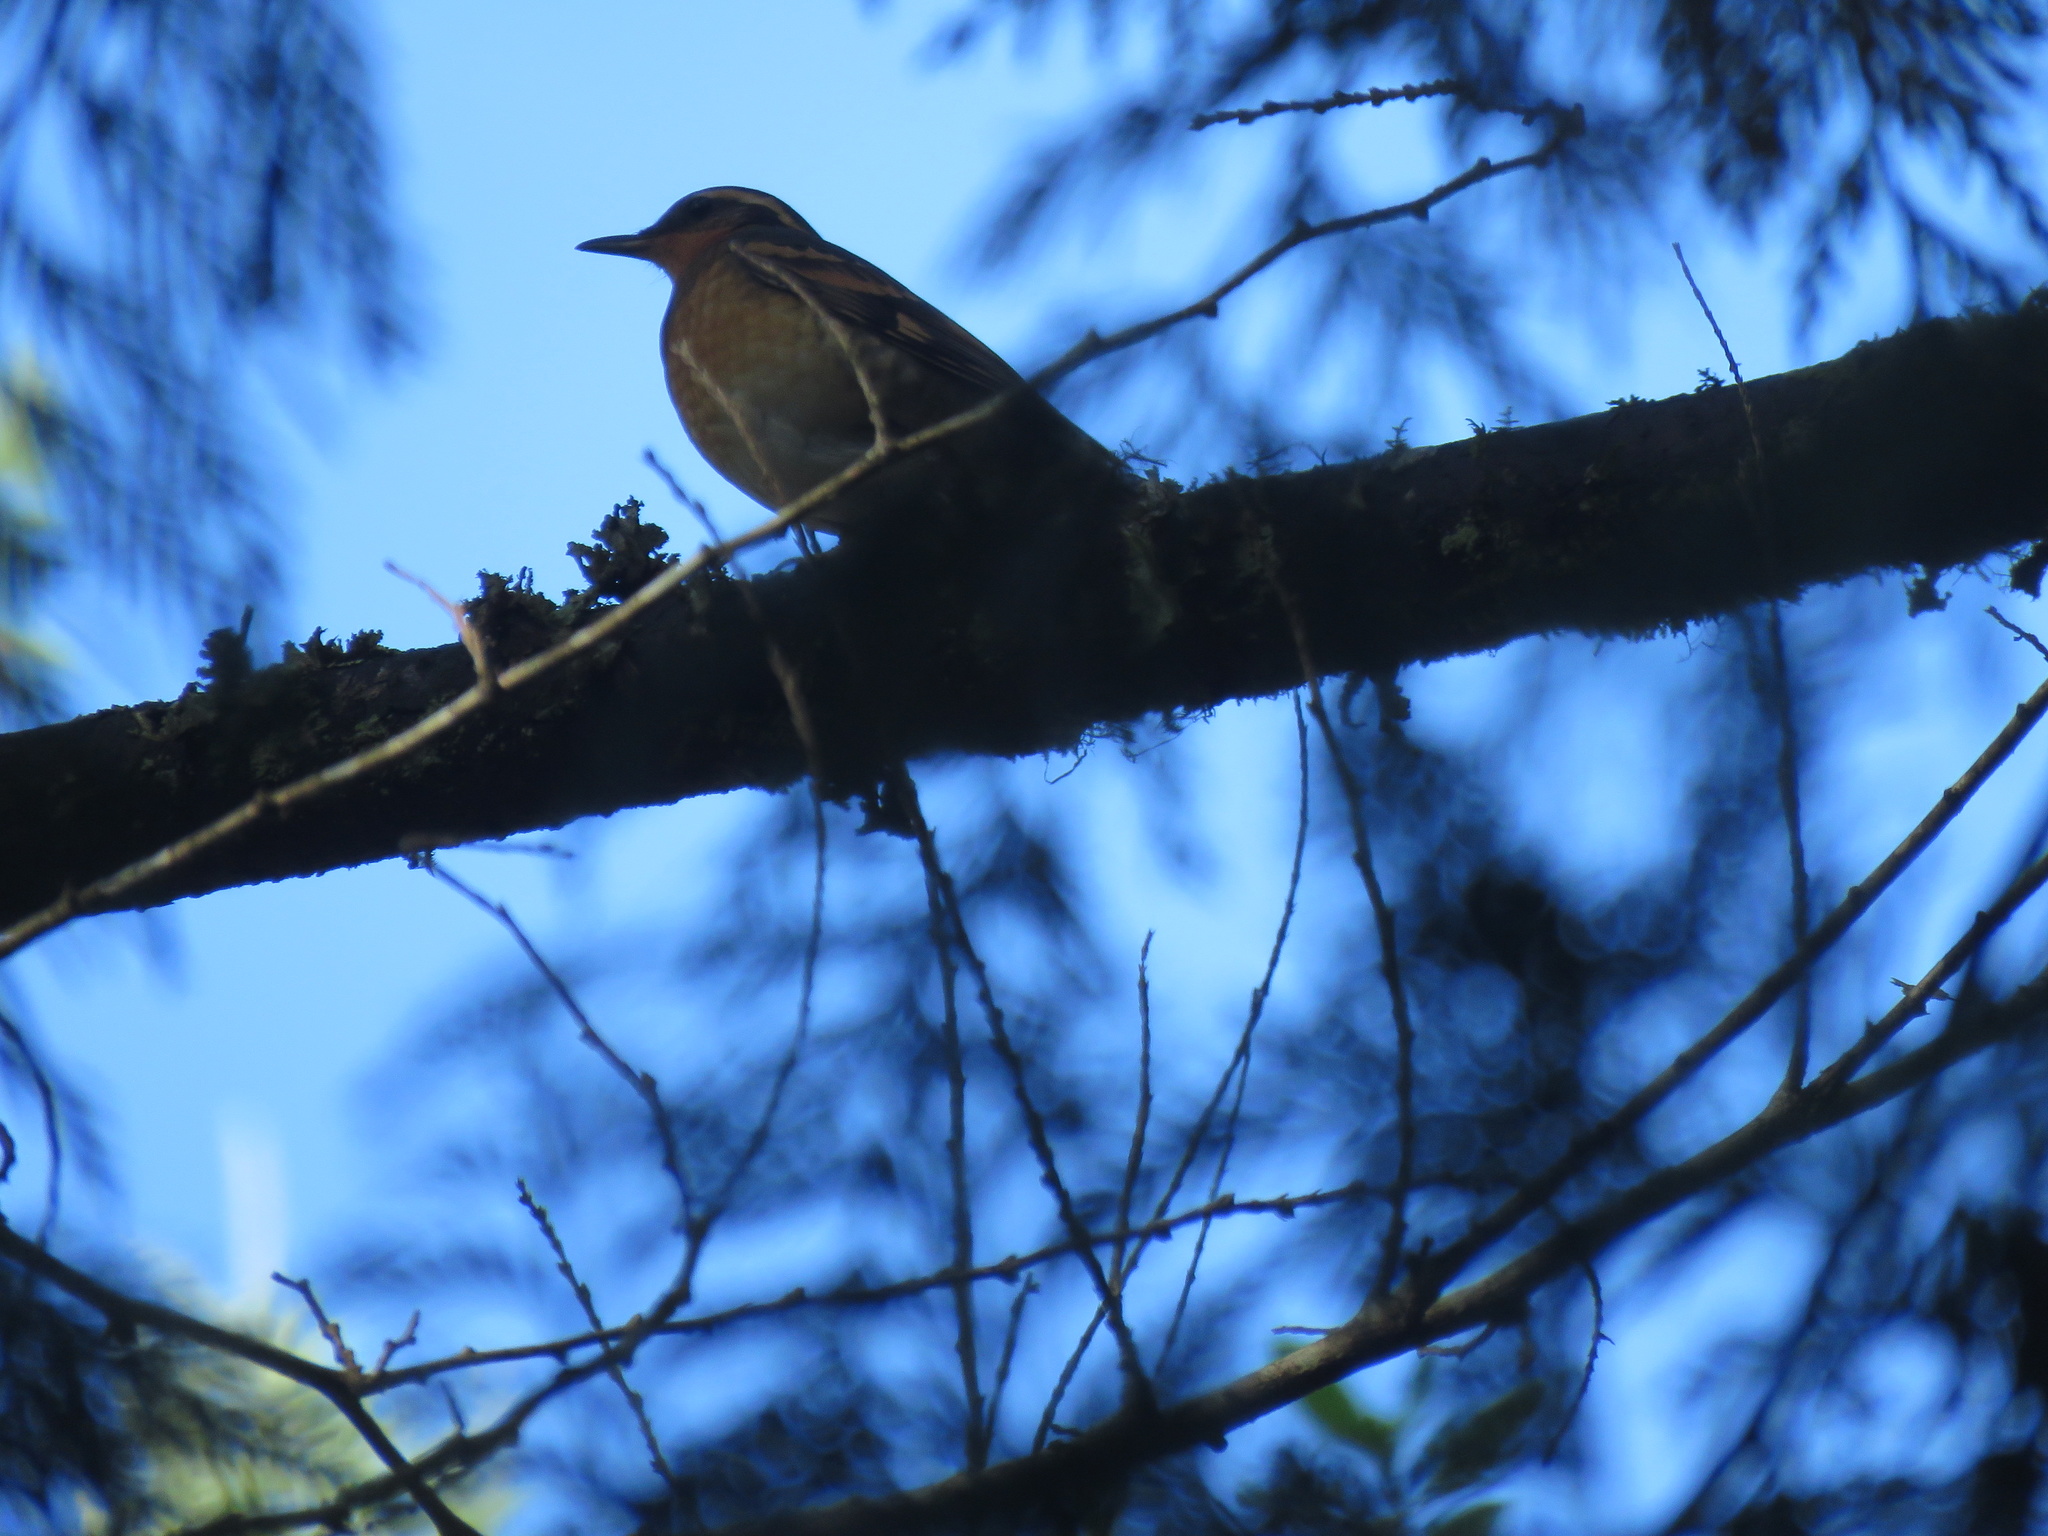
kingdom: Animalia
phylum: Chordata
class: Aves
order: Passeriformes
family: Turdidae
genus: Ixoreus
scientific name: Ixoreus naevius
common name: Varied thrush
